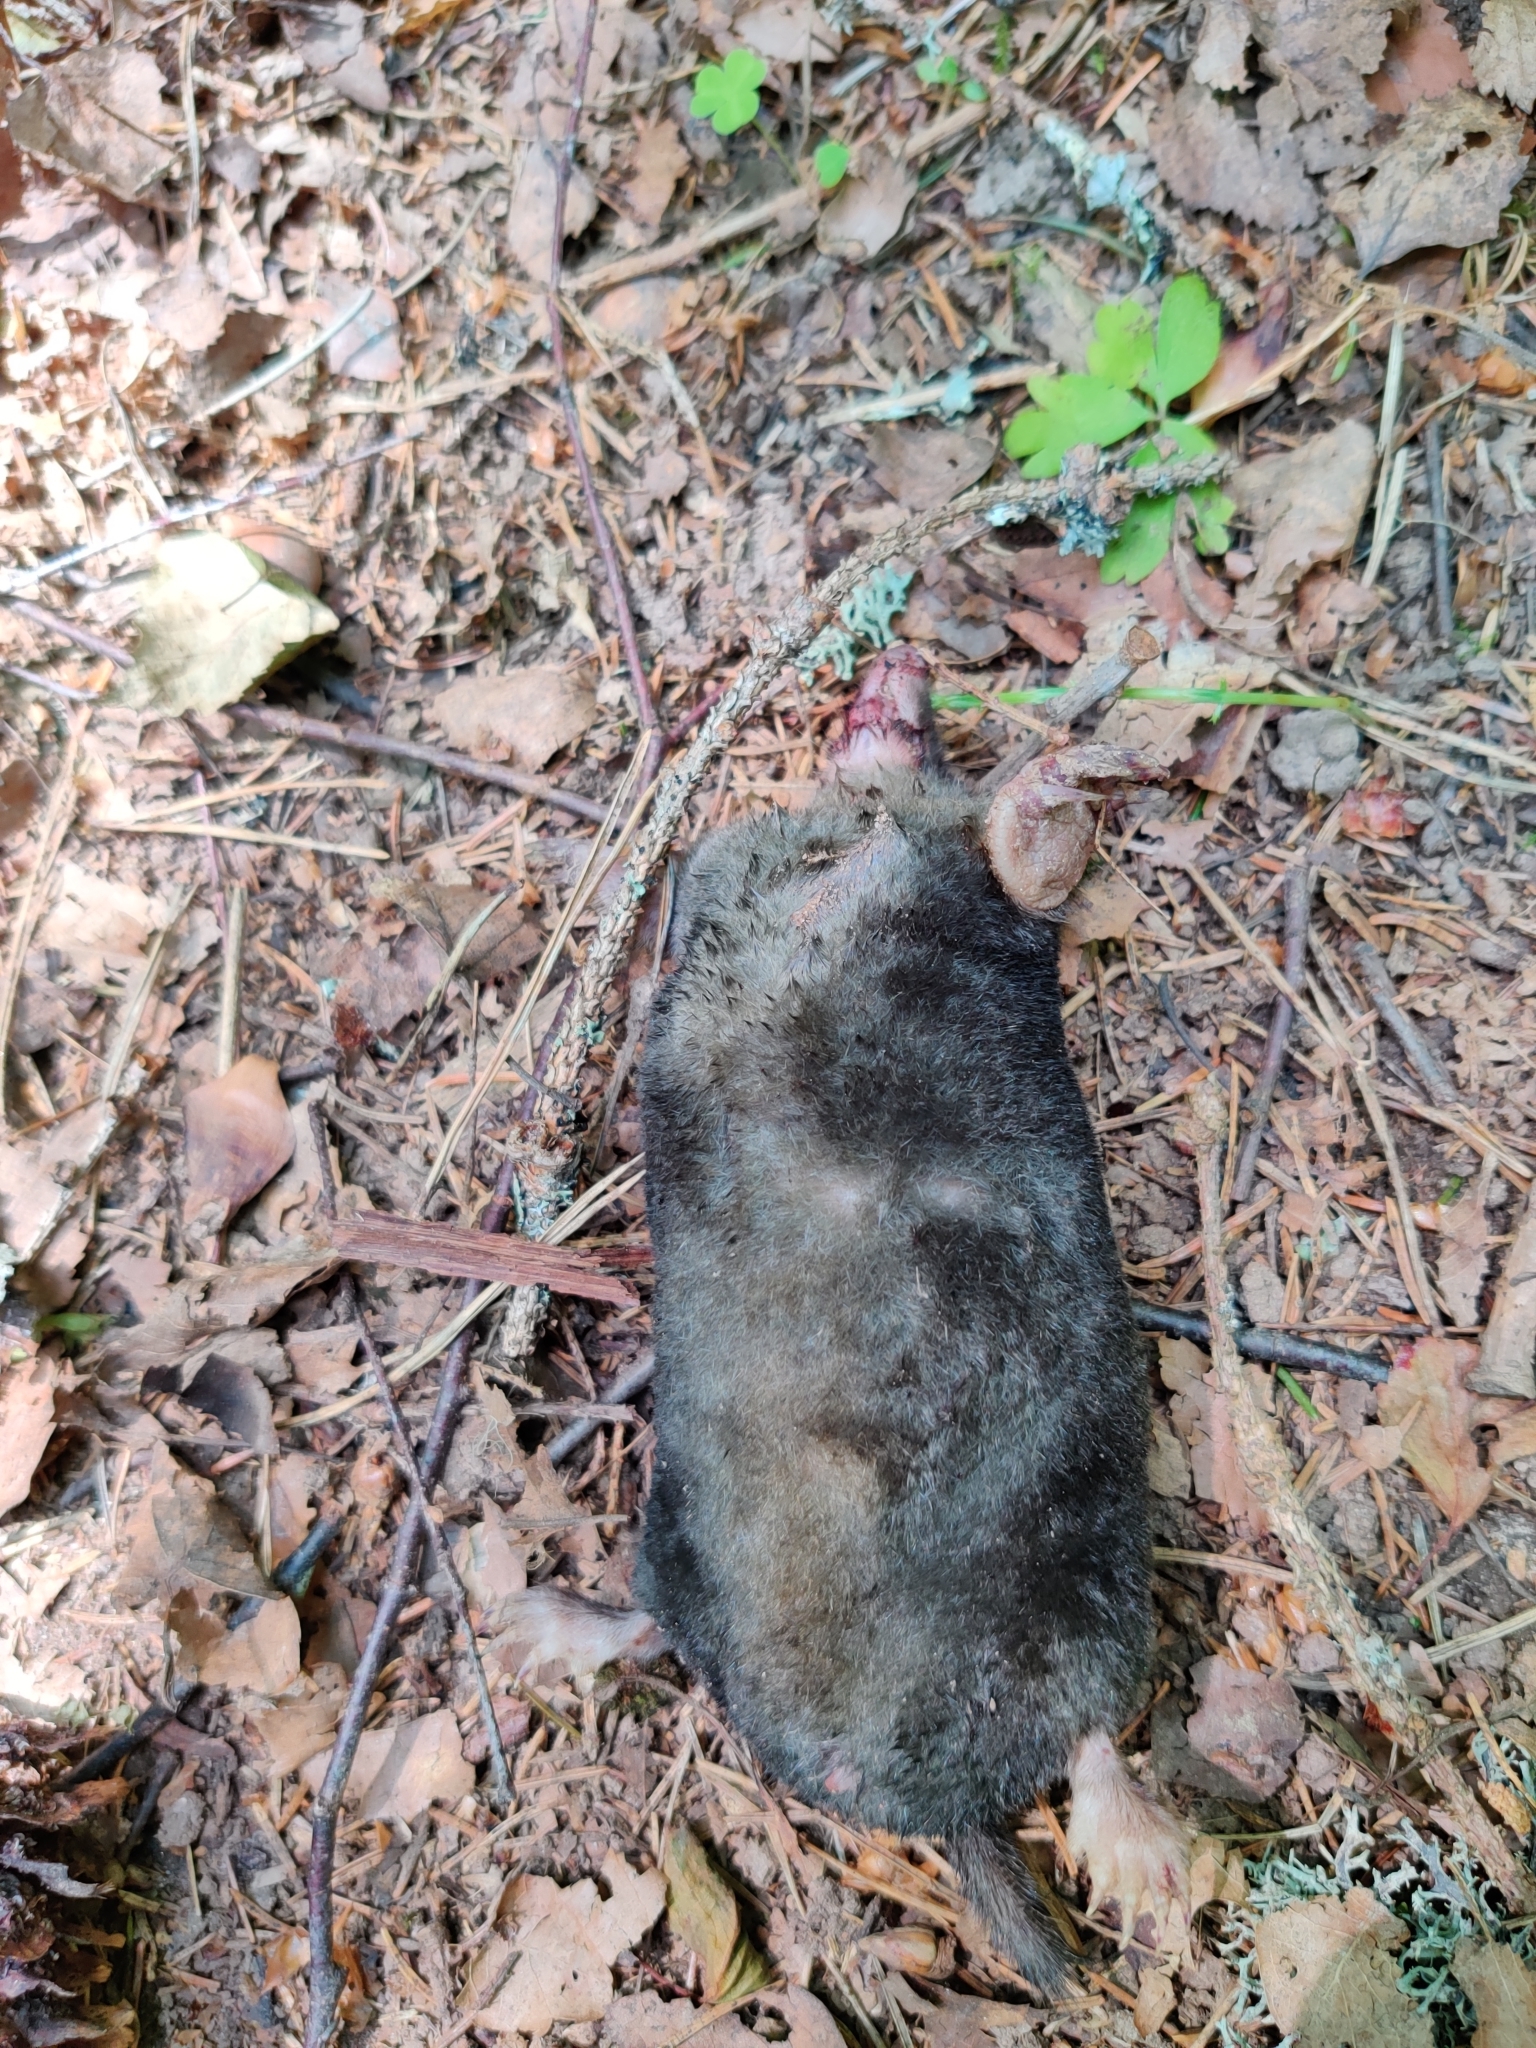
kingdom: Animalia
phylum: Chordata
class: Mammalia
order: Soricomorpha
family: Talpidae
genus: Talpa
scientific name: Talpa europaea
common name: European mole
